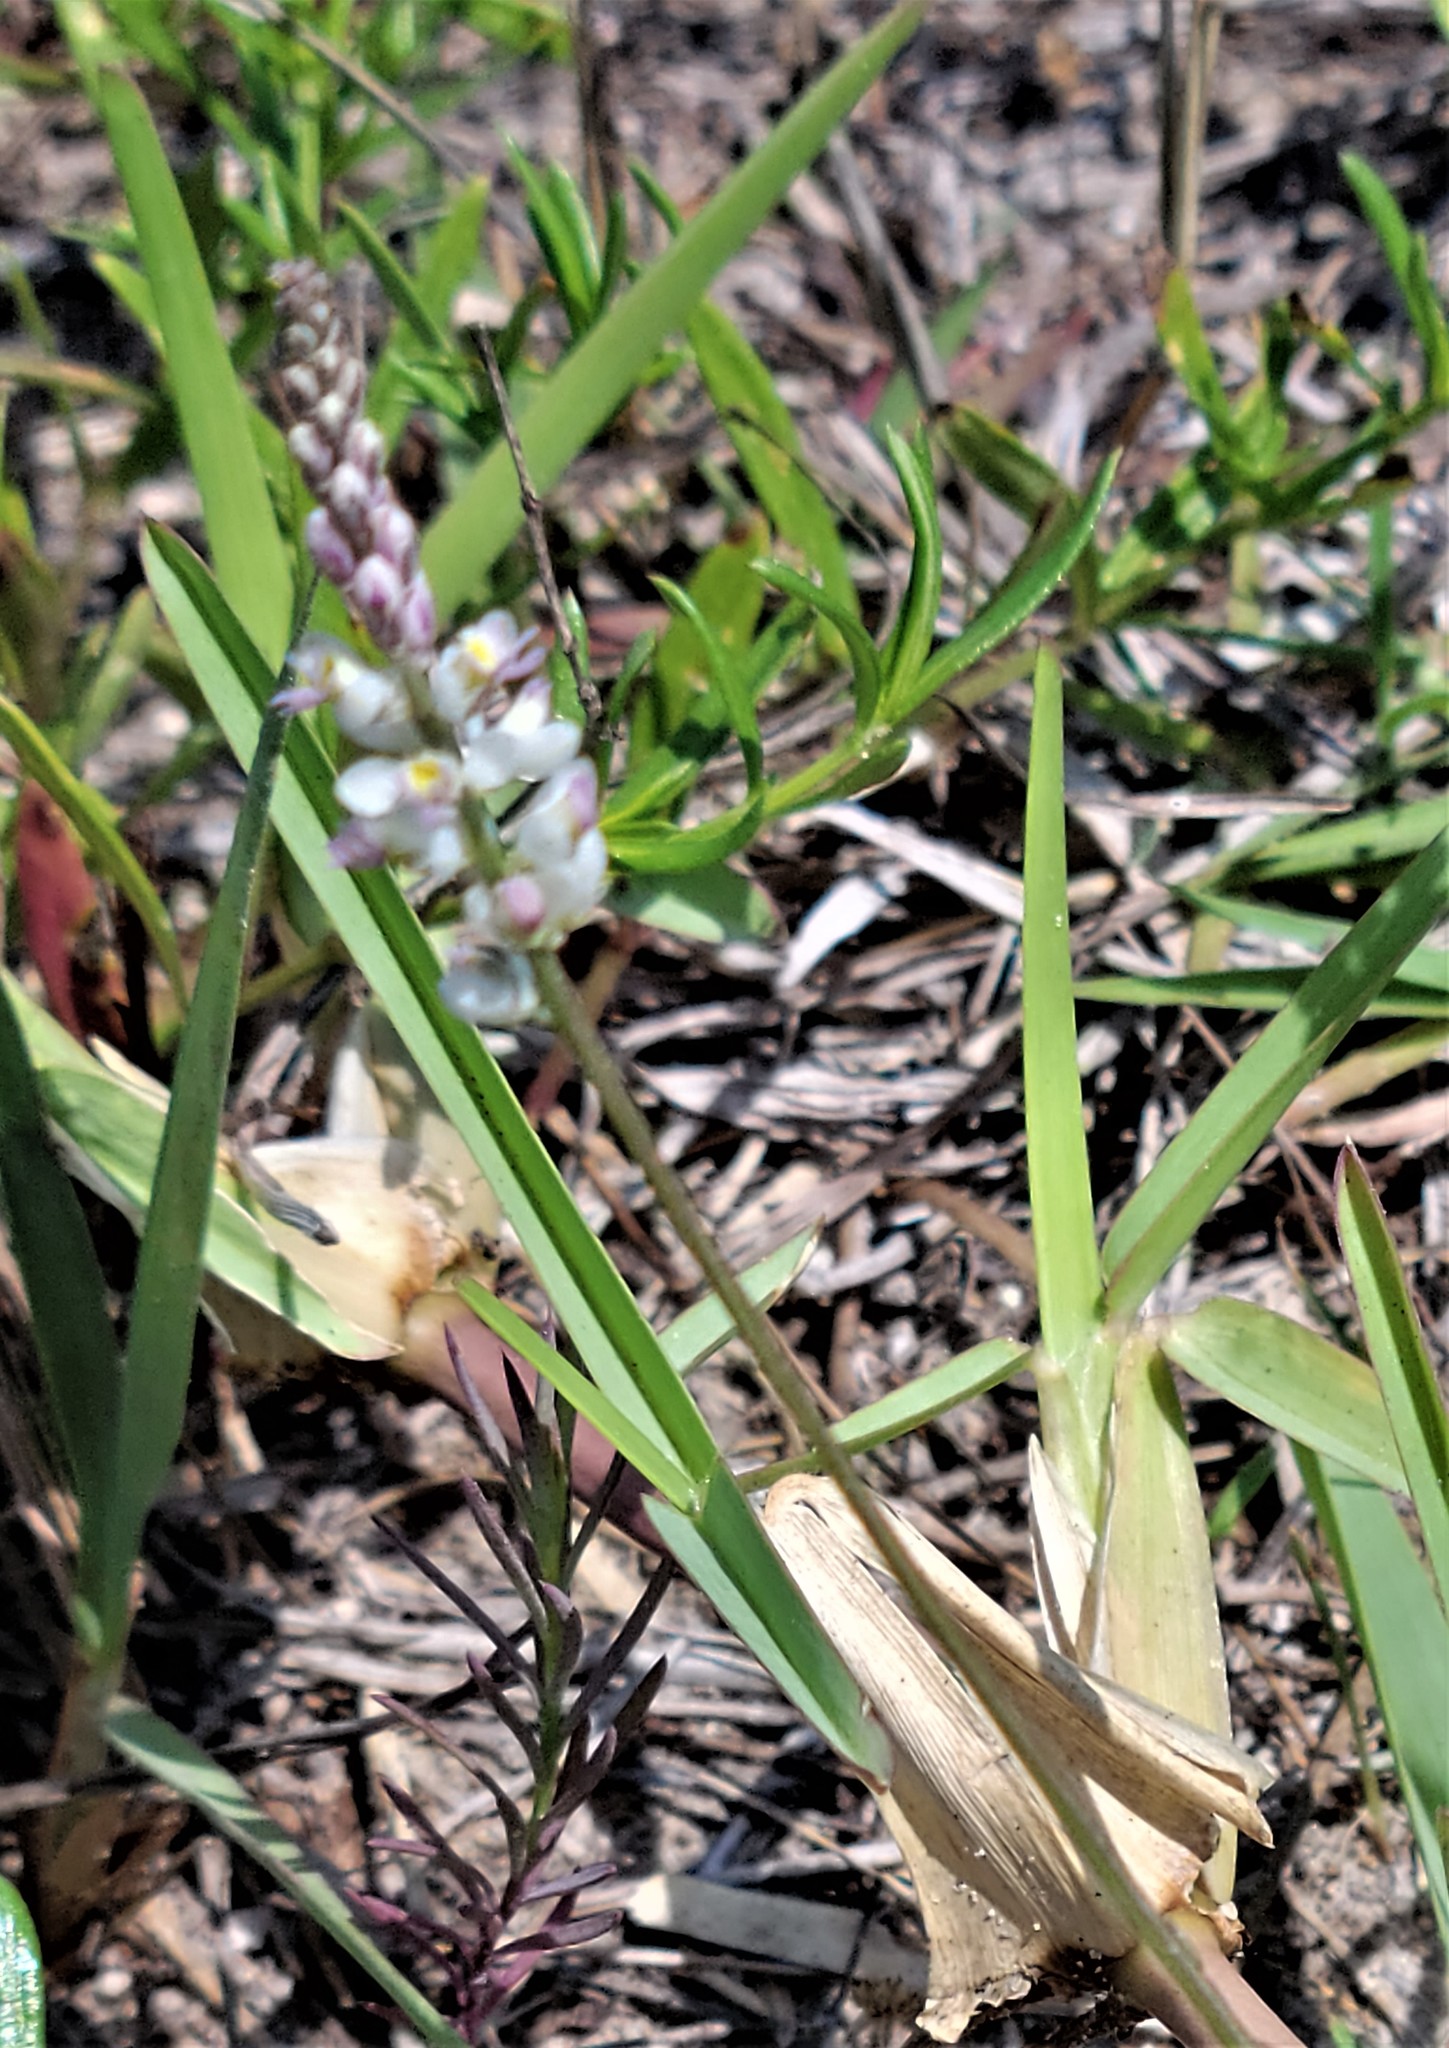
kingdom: Plantae
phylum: Tracheophyta
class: Liliopsida
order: Asparagales
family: Orchidaceae
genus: Spiranthes
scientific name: Spiranthes vernalis
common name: Spring ladies'-tresses
